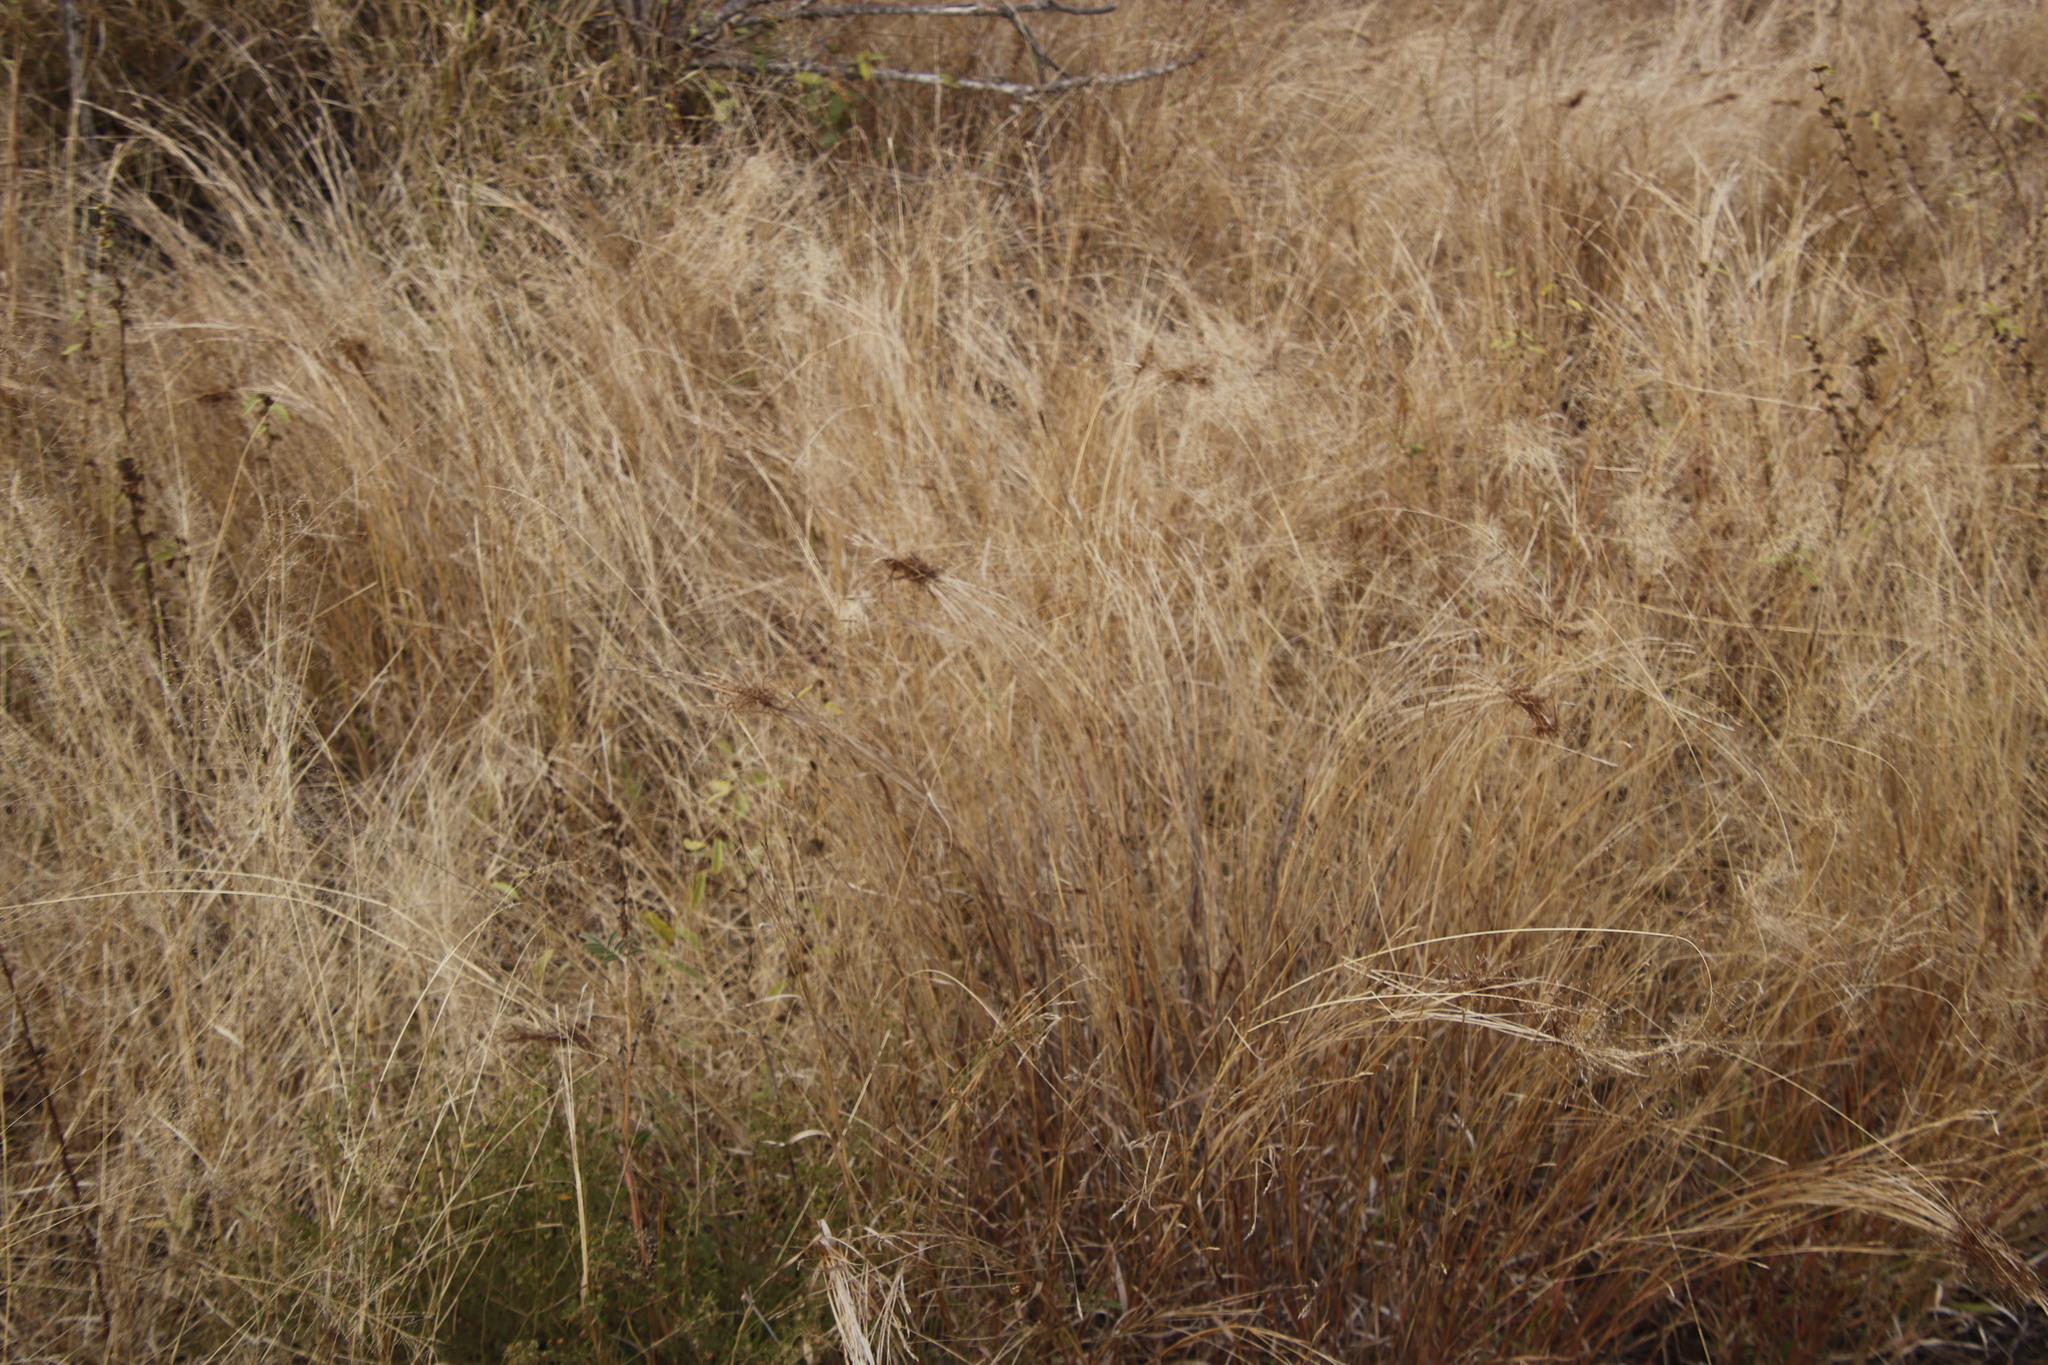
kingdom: Plantae
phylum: Tracheophyta
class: Liliopsida
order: Poales
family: Poaceae
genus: Heteropogon
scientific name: Heteropogon contortus
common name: Tanglehead
